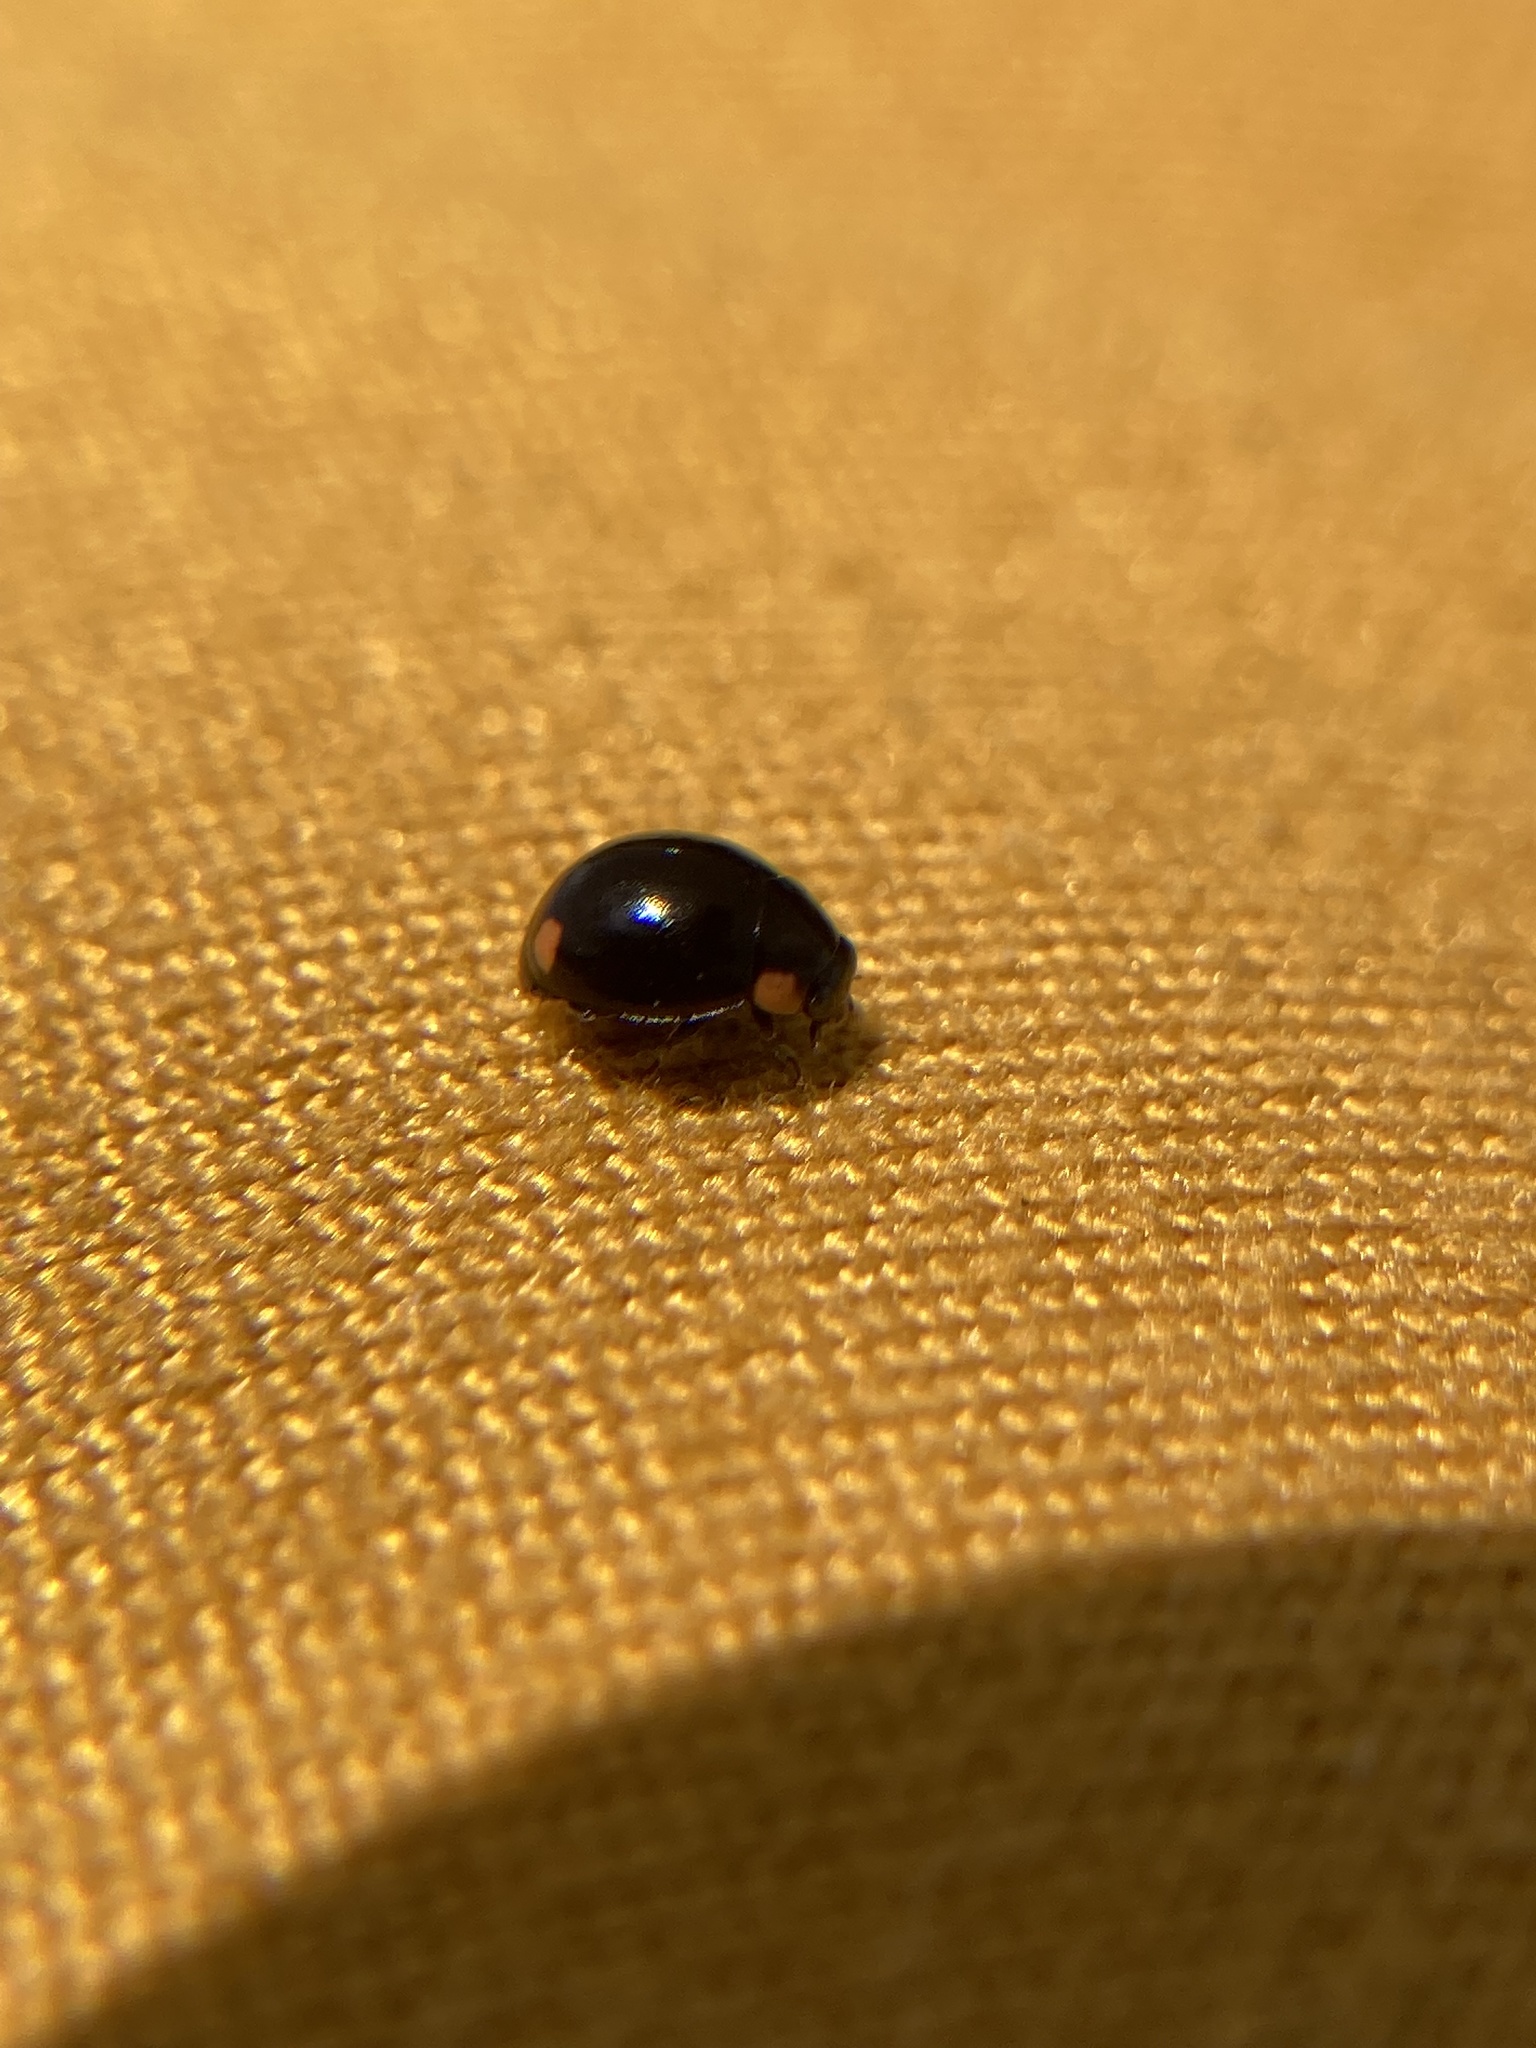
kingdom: Animalia
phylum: Arthropoda
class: Insecta
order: Coleoptera
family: Coccinellidae
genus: Hyperaspis
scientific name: Hyperaspis bigeminata
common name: Bigeminate sigil lady beetle
